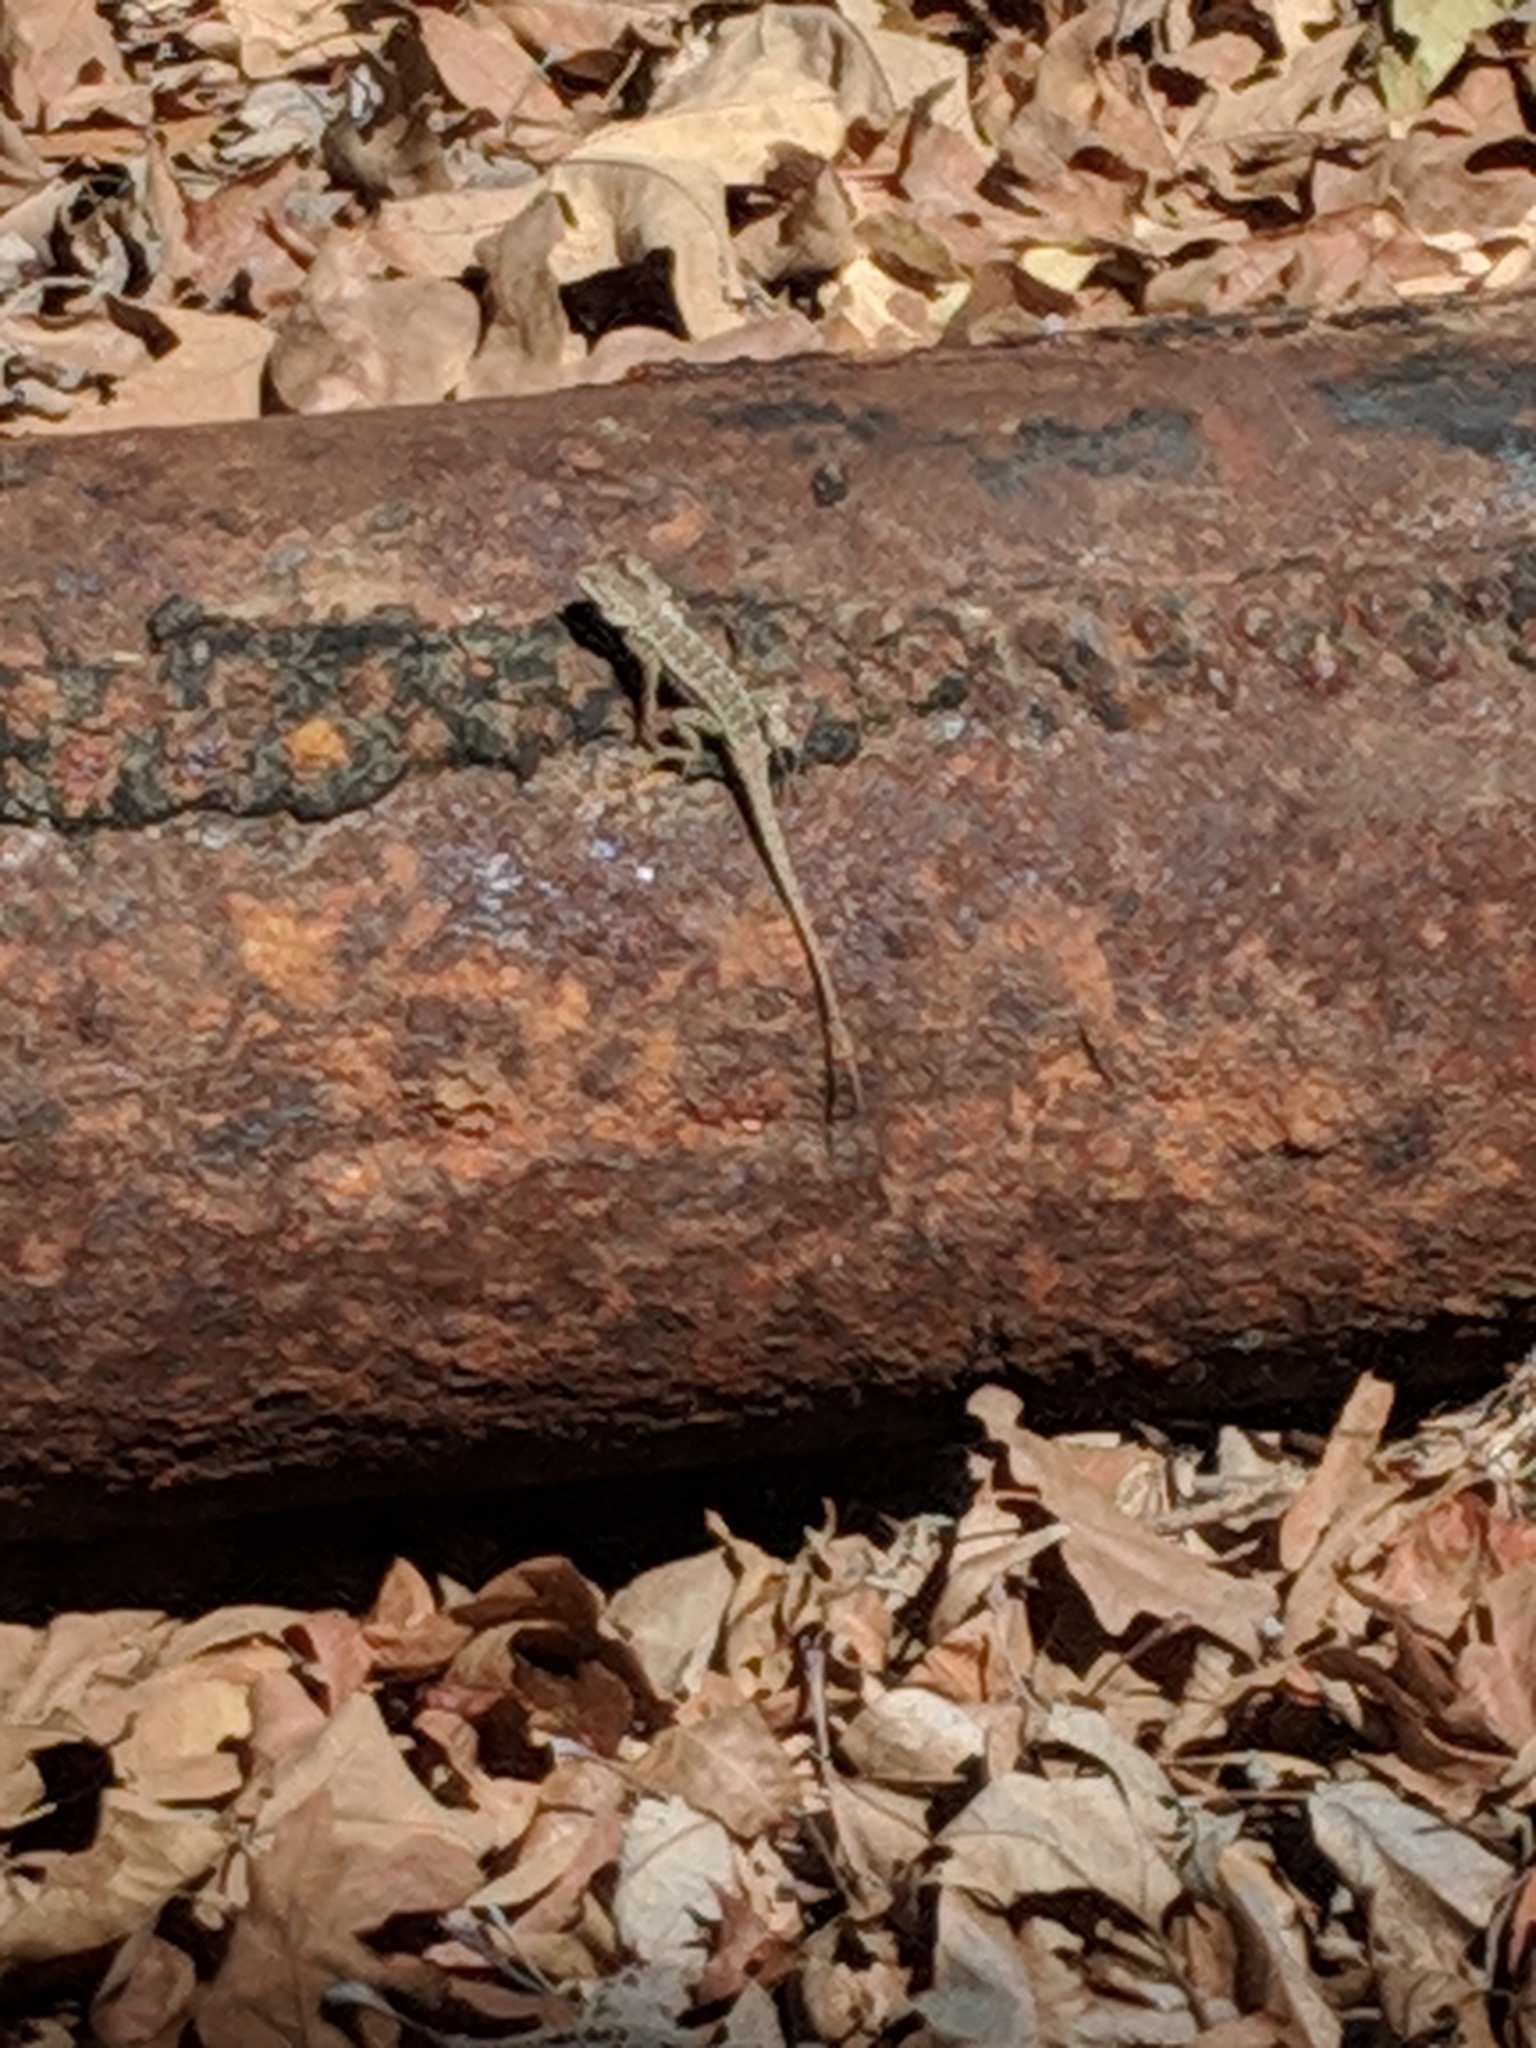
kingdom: Animalia
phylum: Chordata
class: Squamata
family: Phrynosomatidae
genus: Sceloporus
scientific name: Sceloporus occidentalis
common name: Western fence lizard
